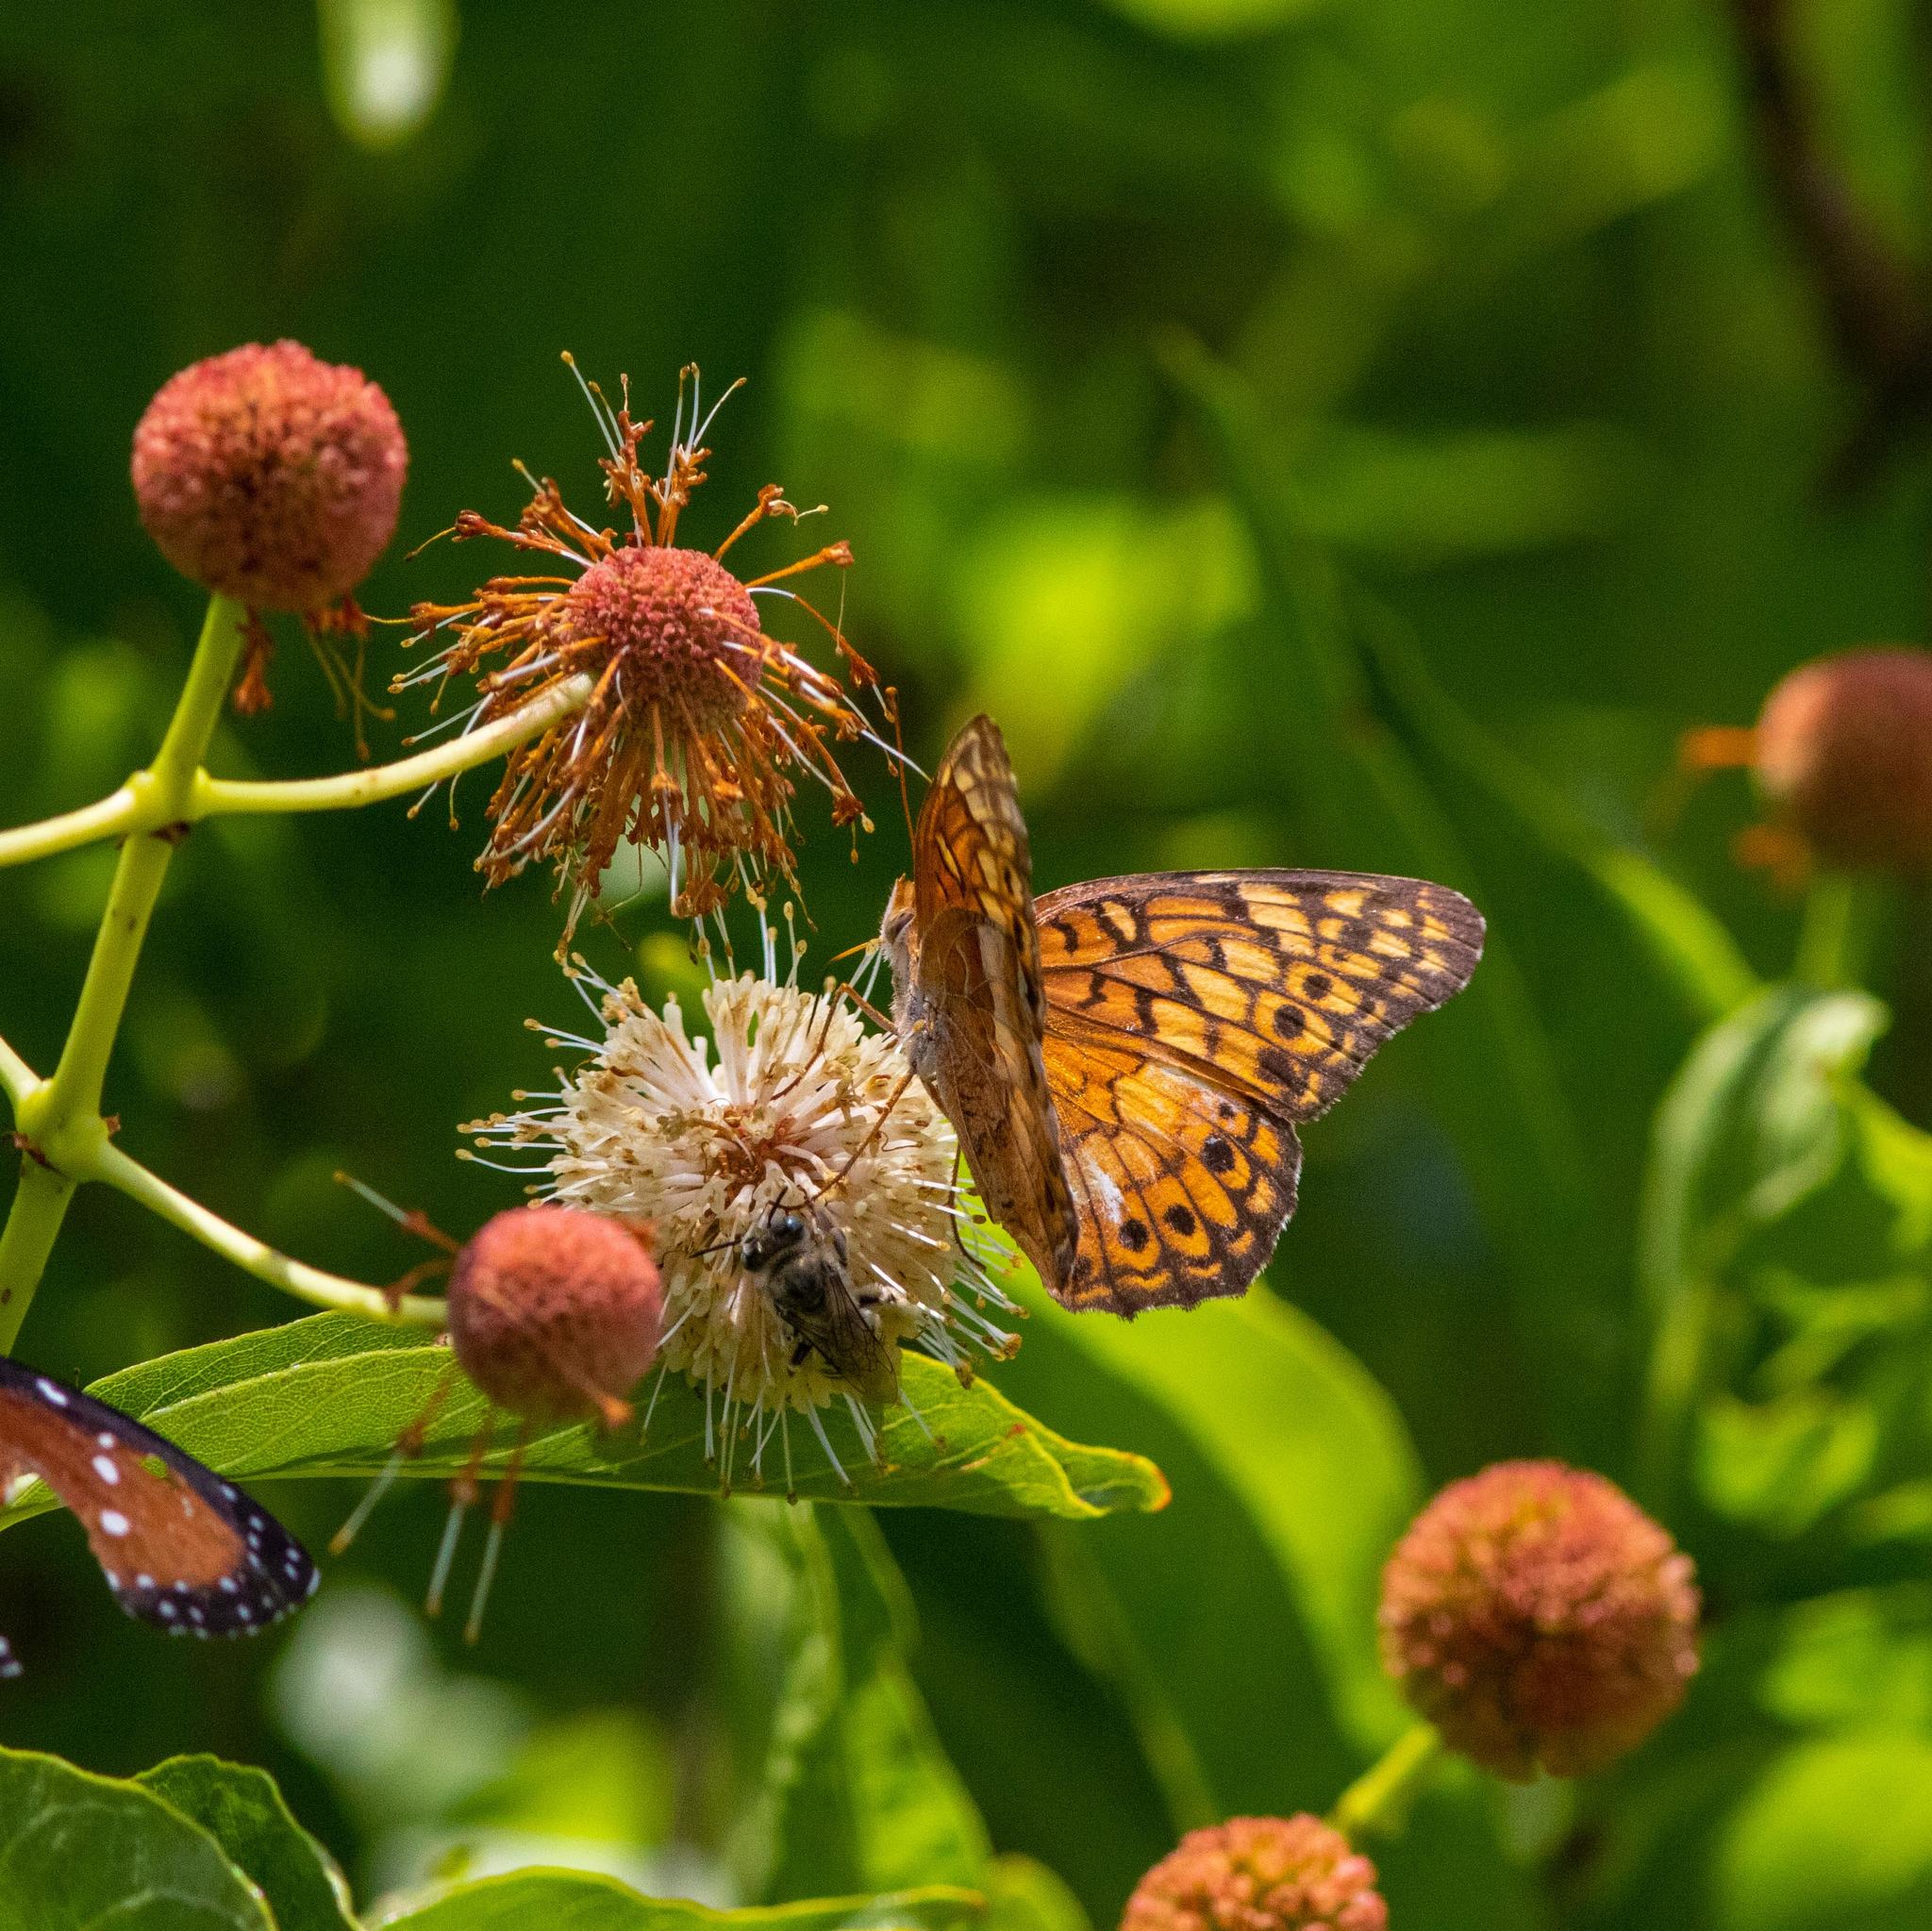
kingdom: Animalia
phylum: Arthropoda
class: Insecta
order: Lepidoptera
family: Nymphalidae
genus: Euptoieta
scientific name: Euptoieta claudia
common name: Variegated fritillary
